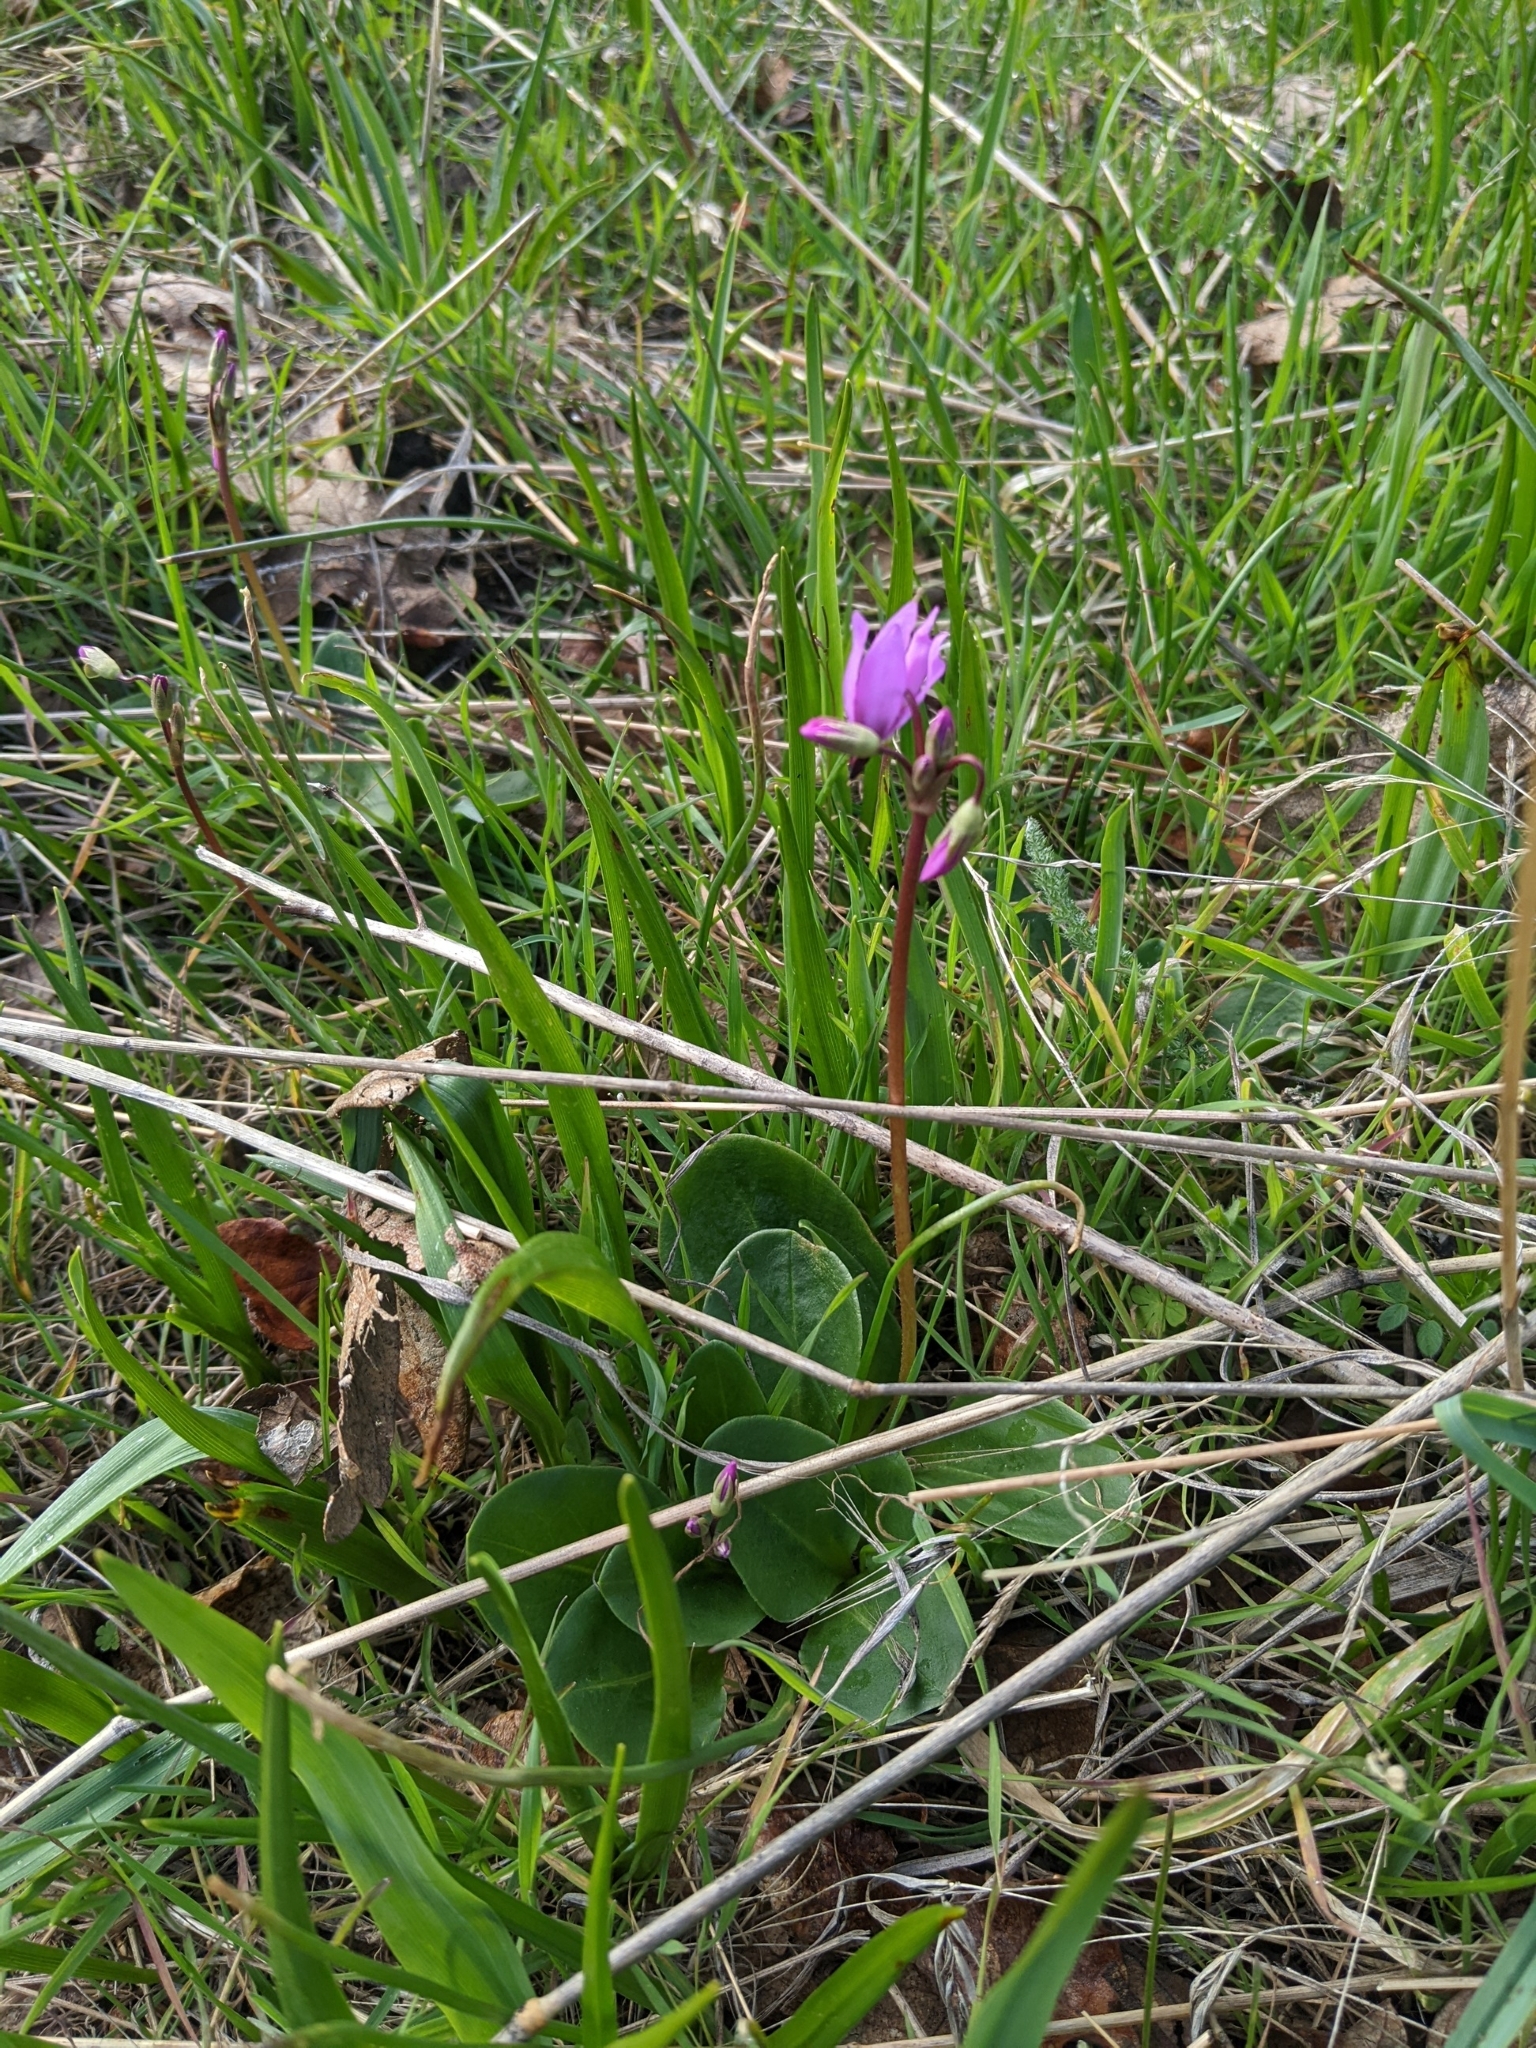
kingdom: Plantae
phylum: Tracheophyta
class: Magnoliopsida
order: Ericales
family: Primulaceae
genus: Dodecatheon
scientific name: Dodecatheon hendersonii
